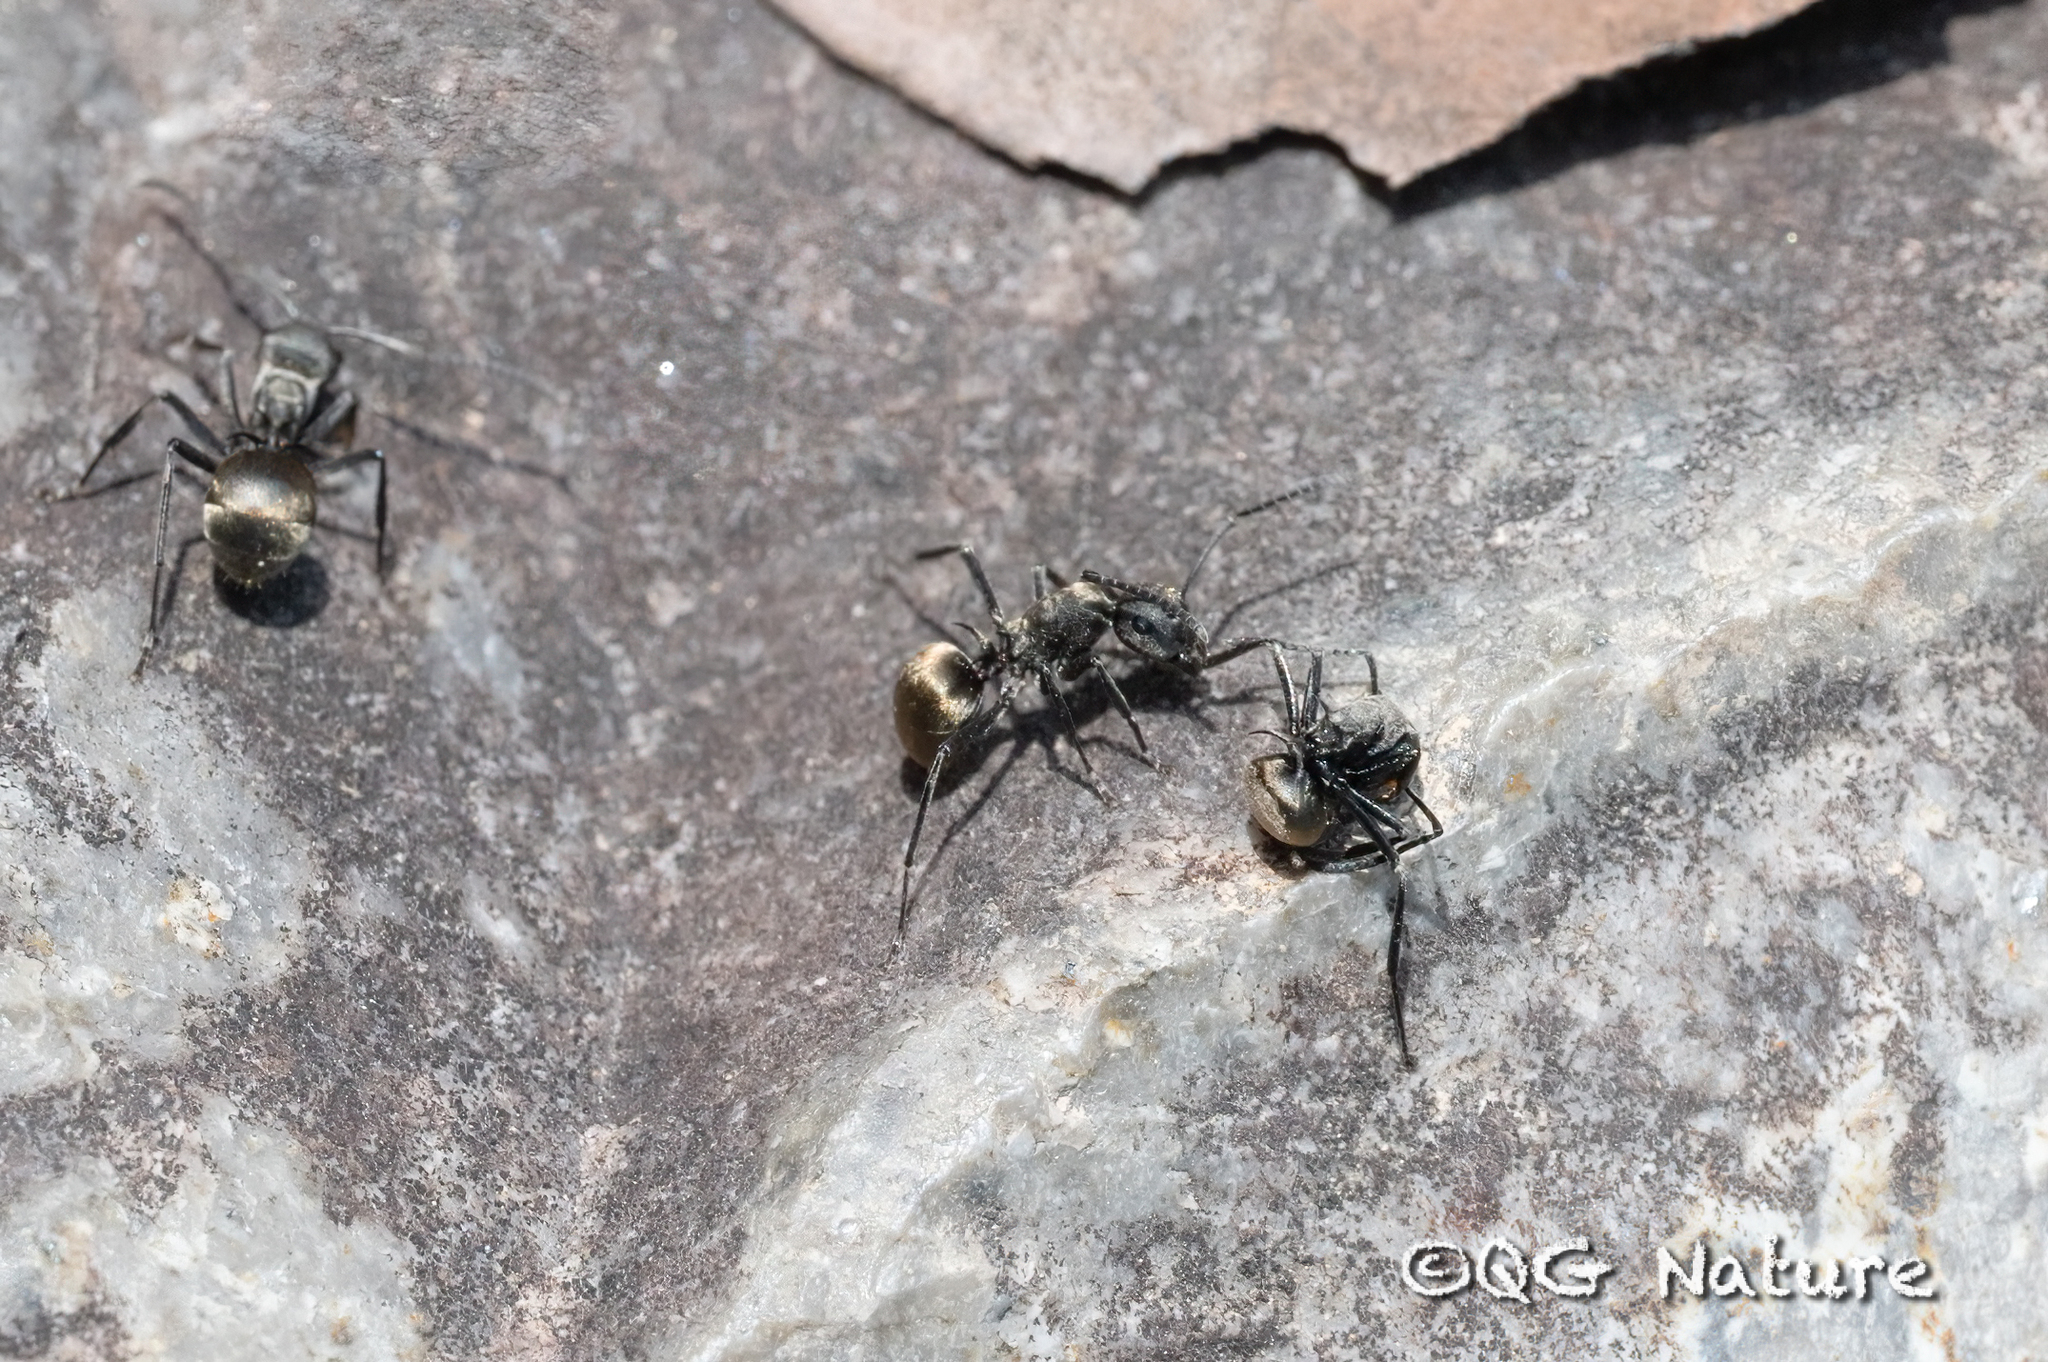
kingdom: Animalia
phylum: Arthropoda
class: Insecta
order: Hymenoptera
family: Formicidae
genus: Polyrhachis
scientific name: Polyrhachis dives
